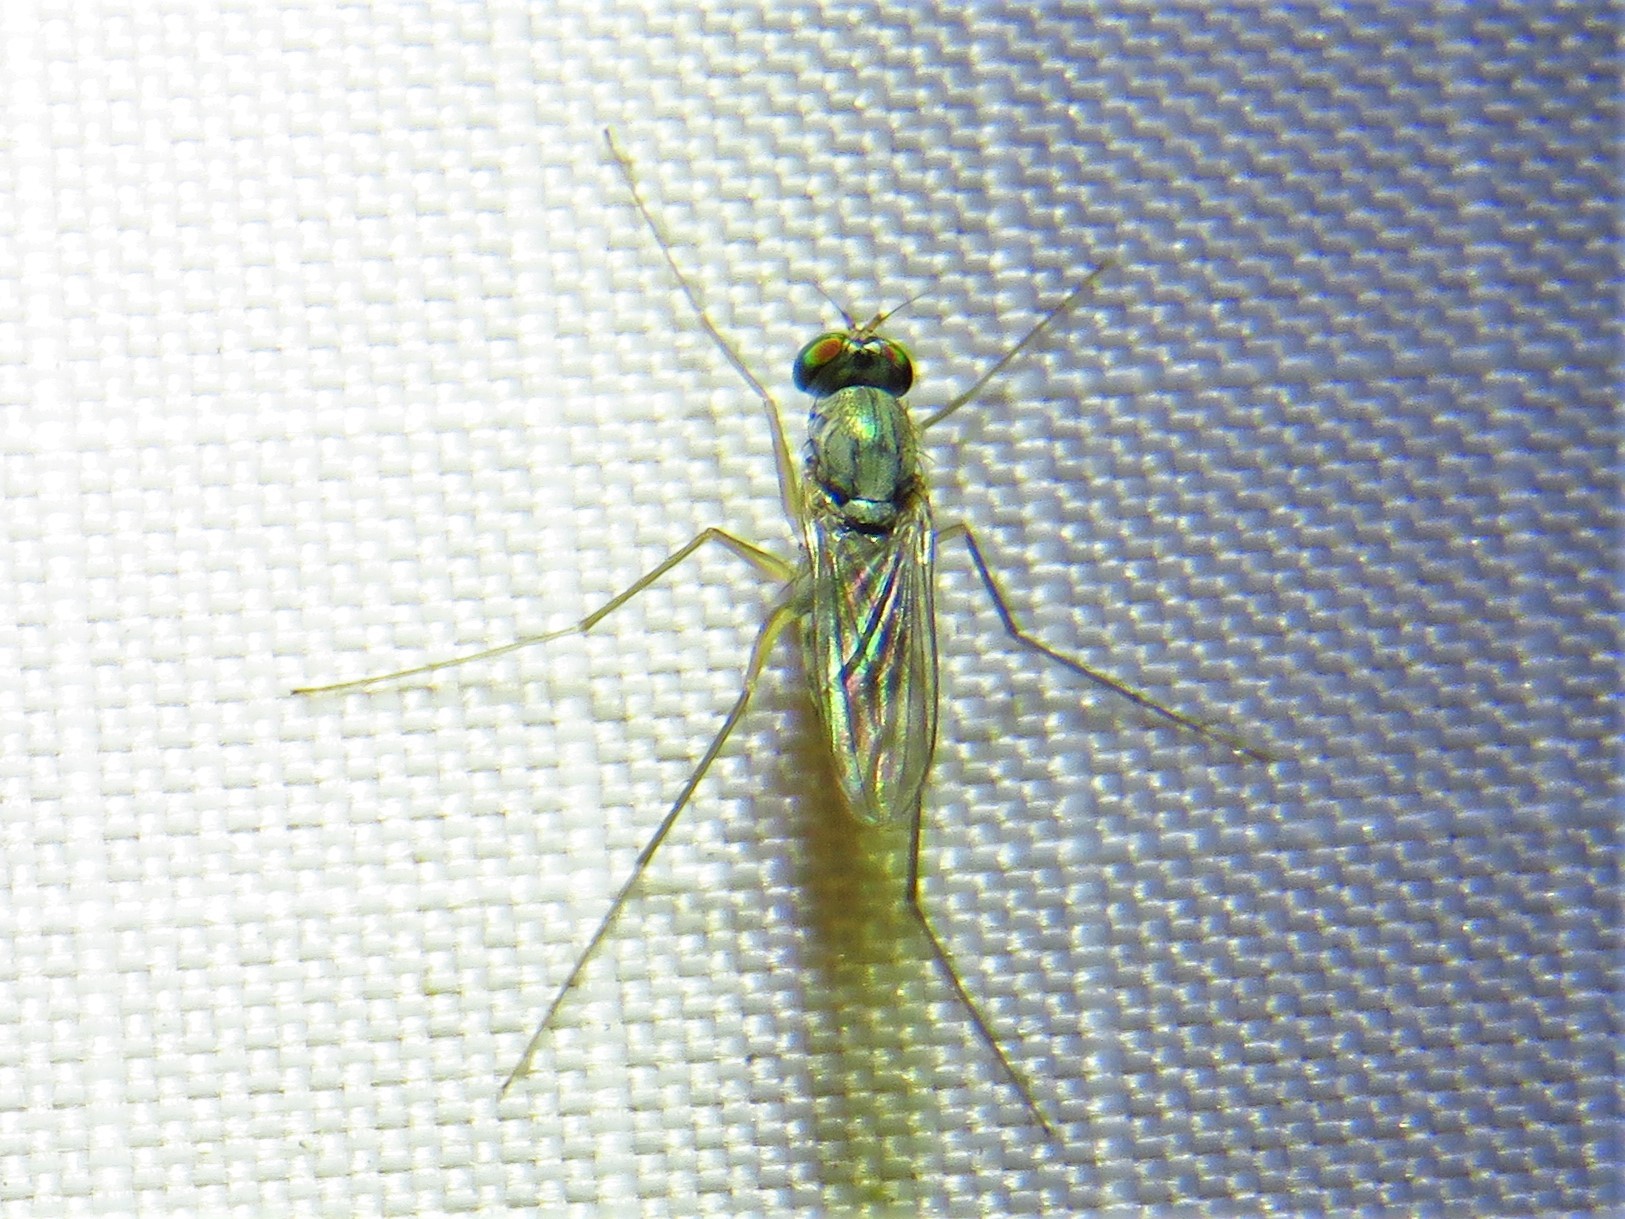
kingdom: Animalia
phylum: Arthropoda
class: Insecta
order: Diptera
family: Dolichopodidae
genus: Dactylomyia
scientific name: Dactylomyia lateralis
